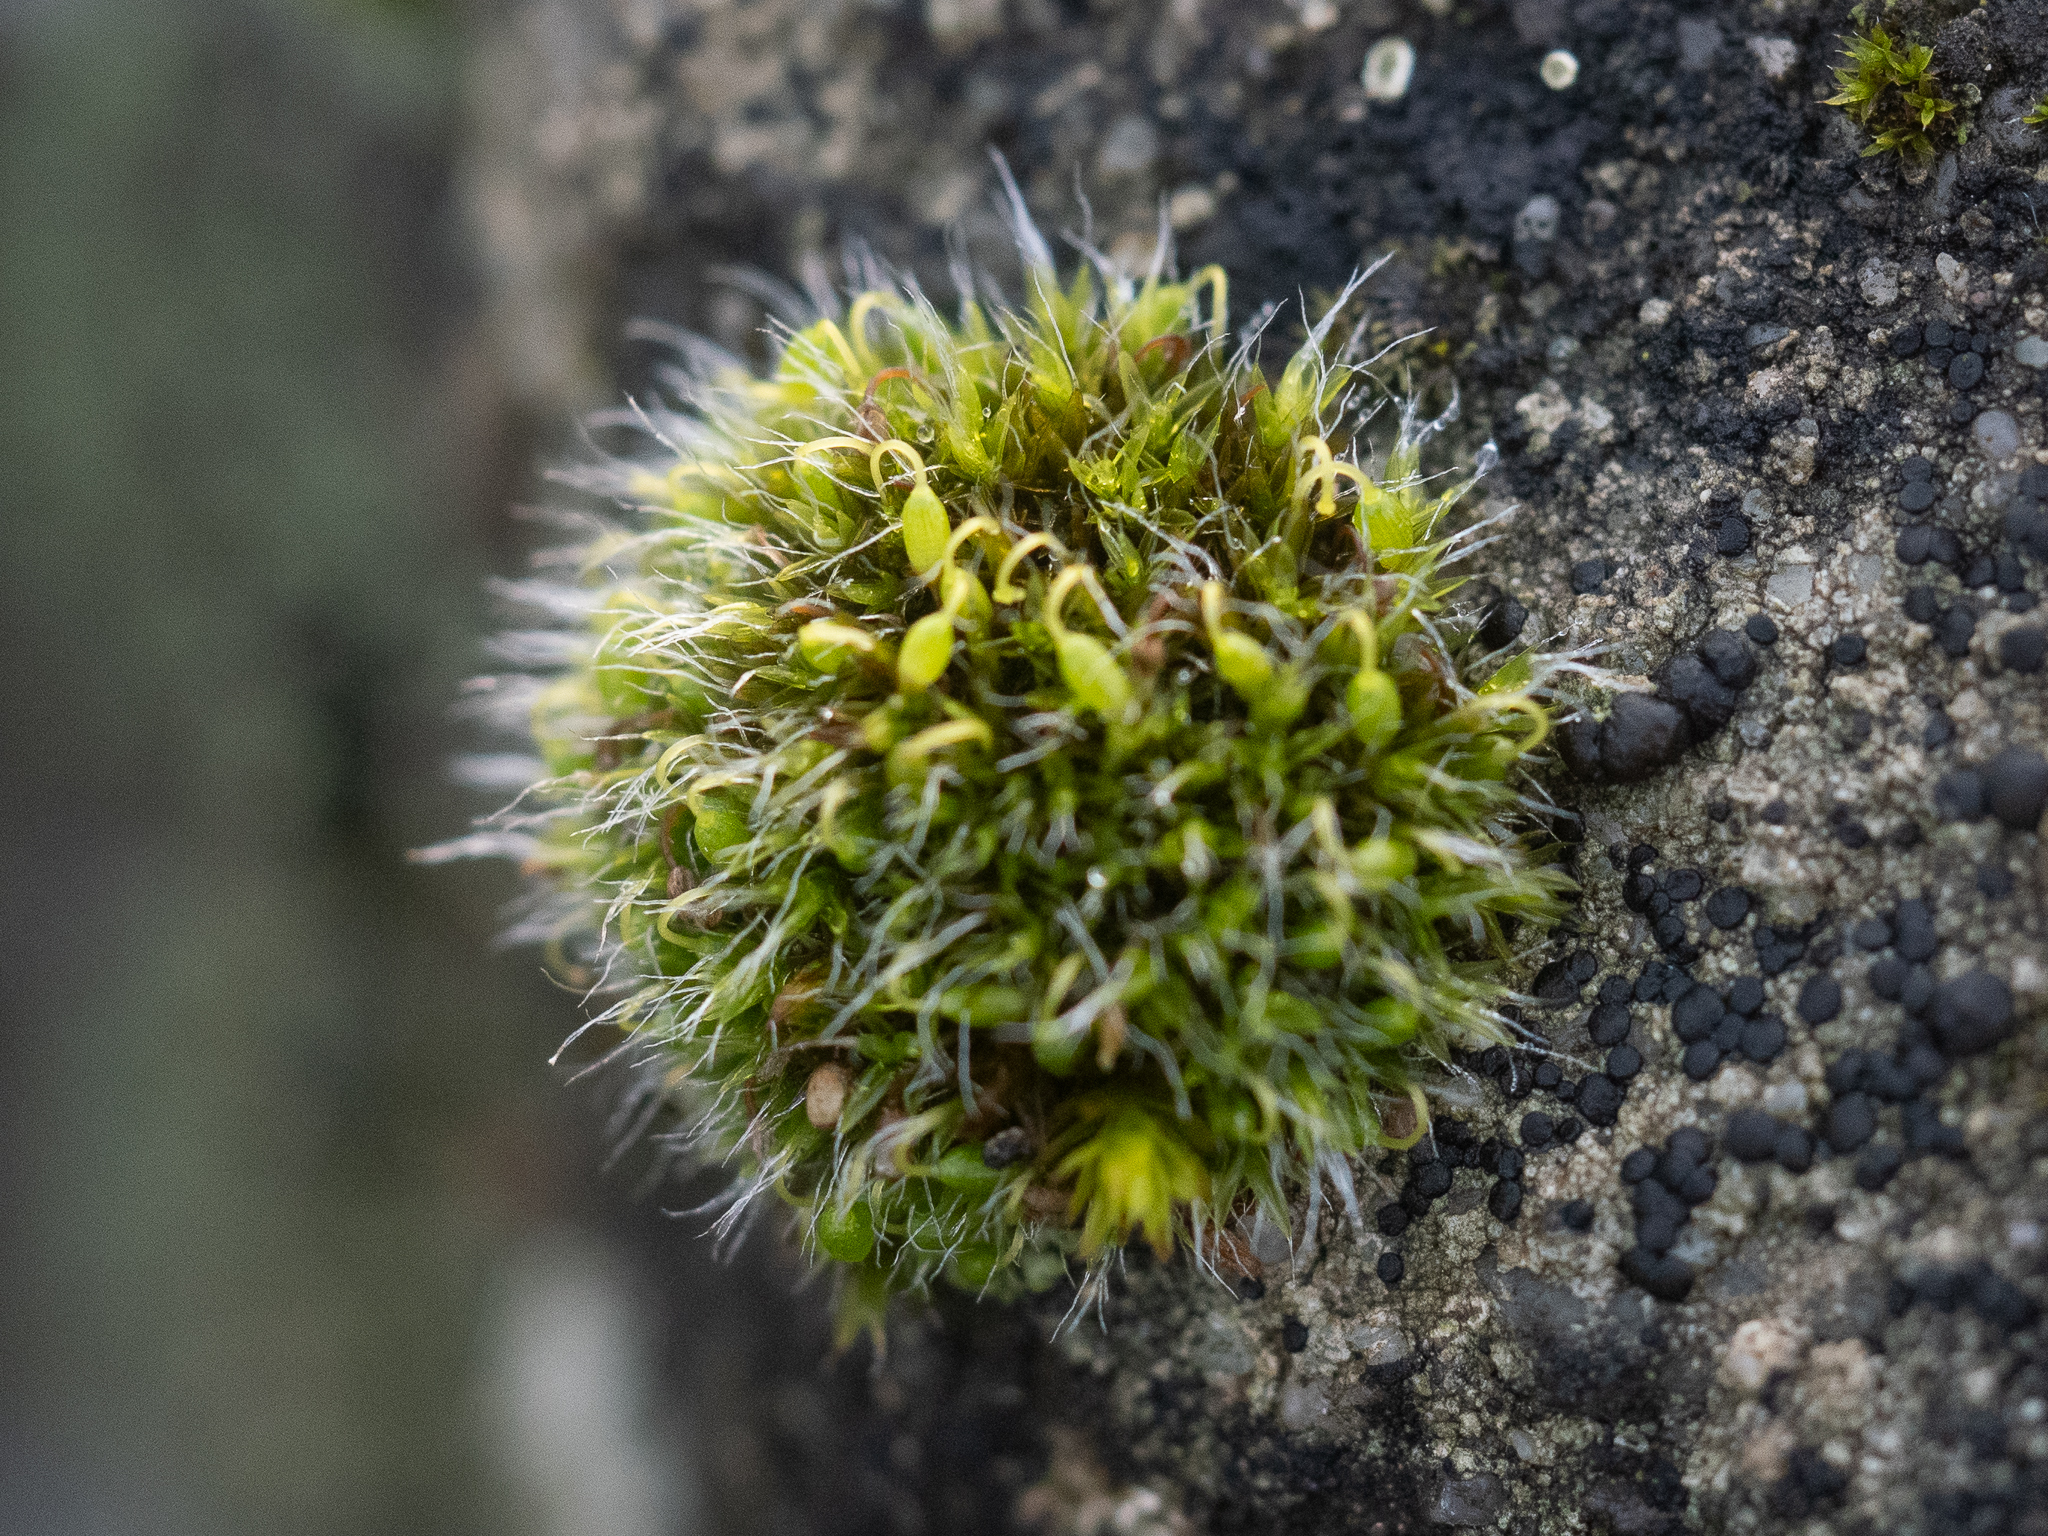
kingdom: Plantae
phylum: Bryophyta
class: Bryopsida
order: Grimmiales
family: Grimmiaceae
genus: Grimmia
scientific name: Grimmia pulvinata
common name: Grey-cushioned grimmia
